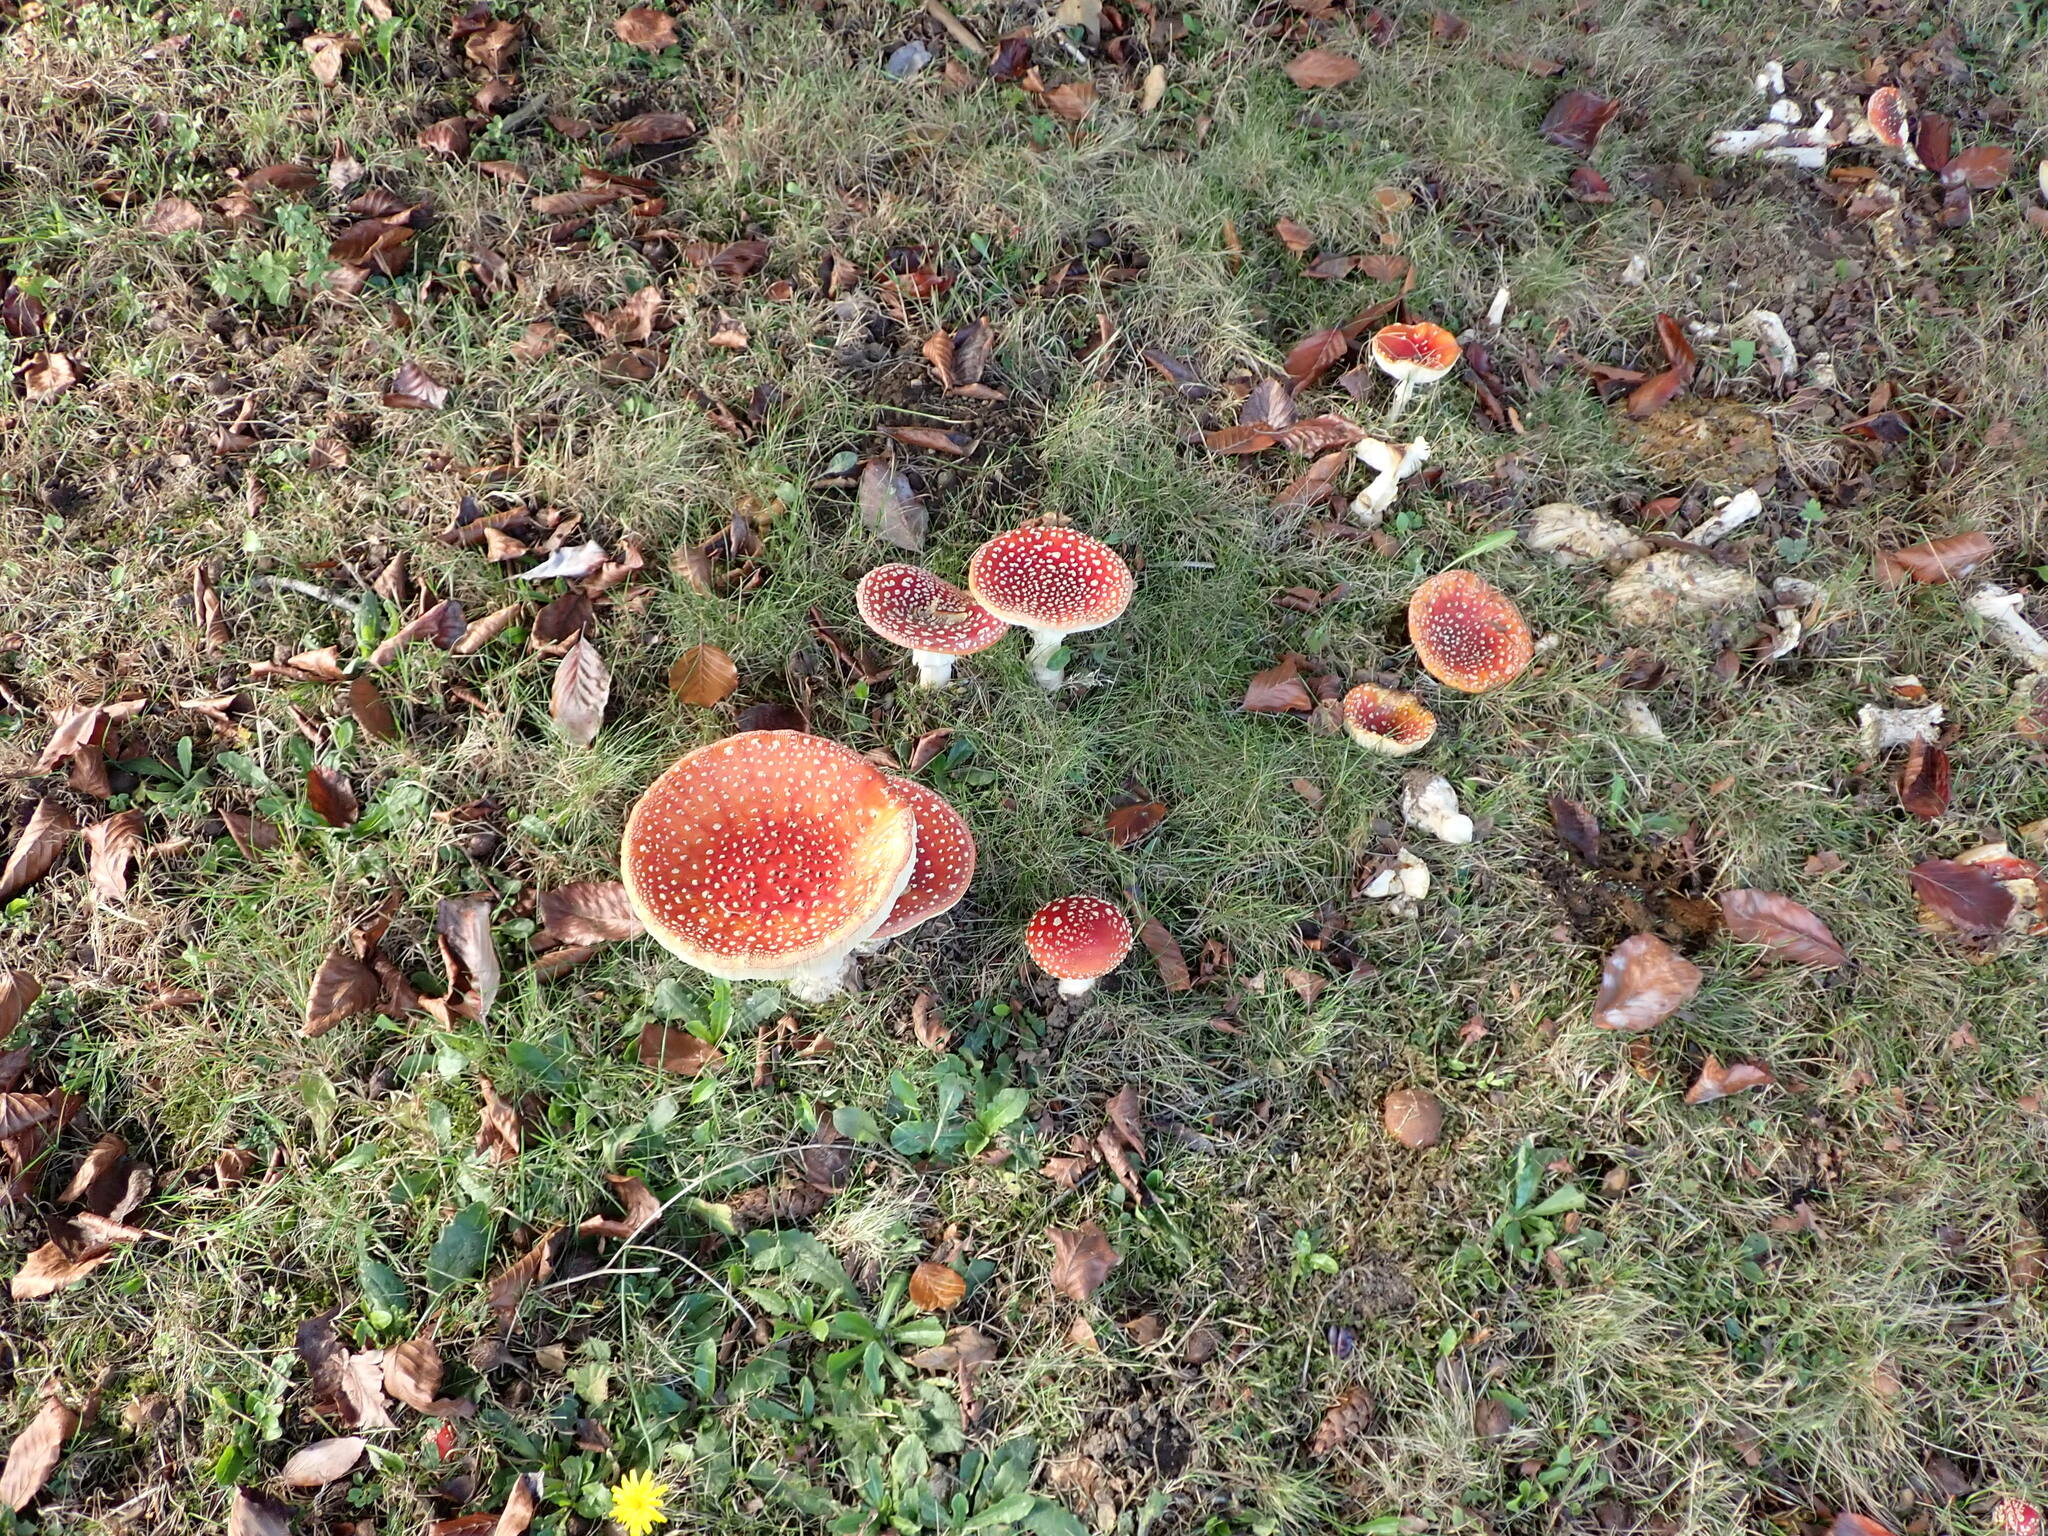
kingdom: Fungi
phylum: Basidiomycota
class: Agaricomycetes
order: Agaricales
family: Amanitaceae
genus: Amanita
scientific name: Amanita muscaria
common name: Fly agaric
